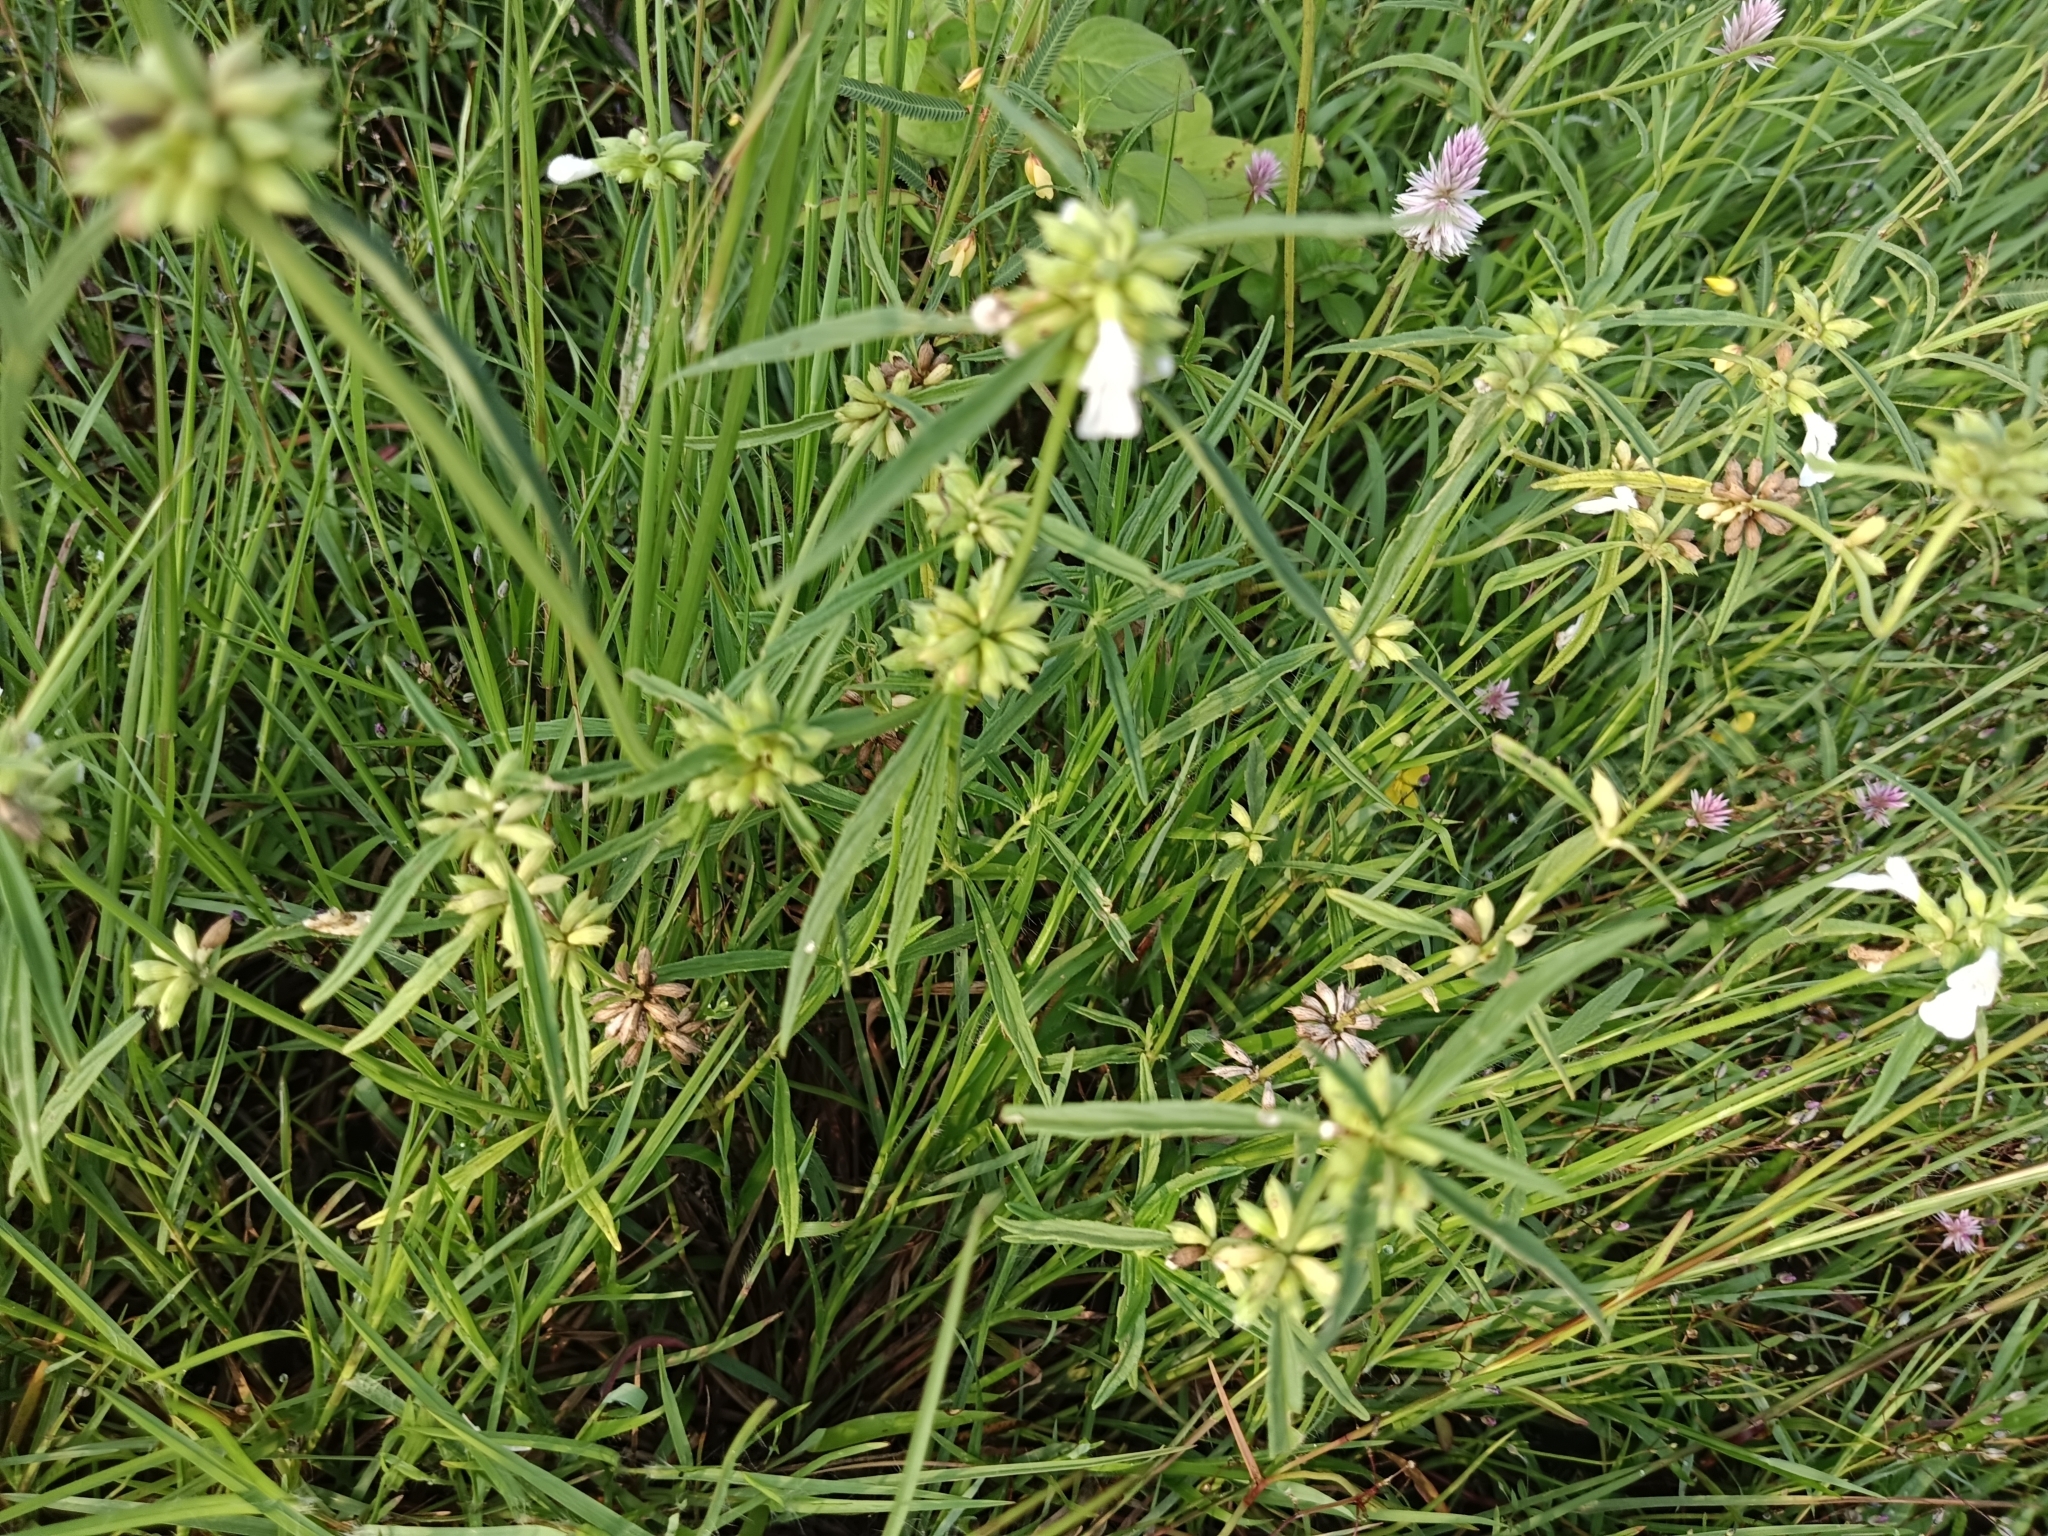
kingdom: Plantae
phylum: Tracheophyta
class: Magnoliopsida
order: Lamiales
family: Lamiaceae
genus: Leucas
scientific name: Leucas aspera
